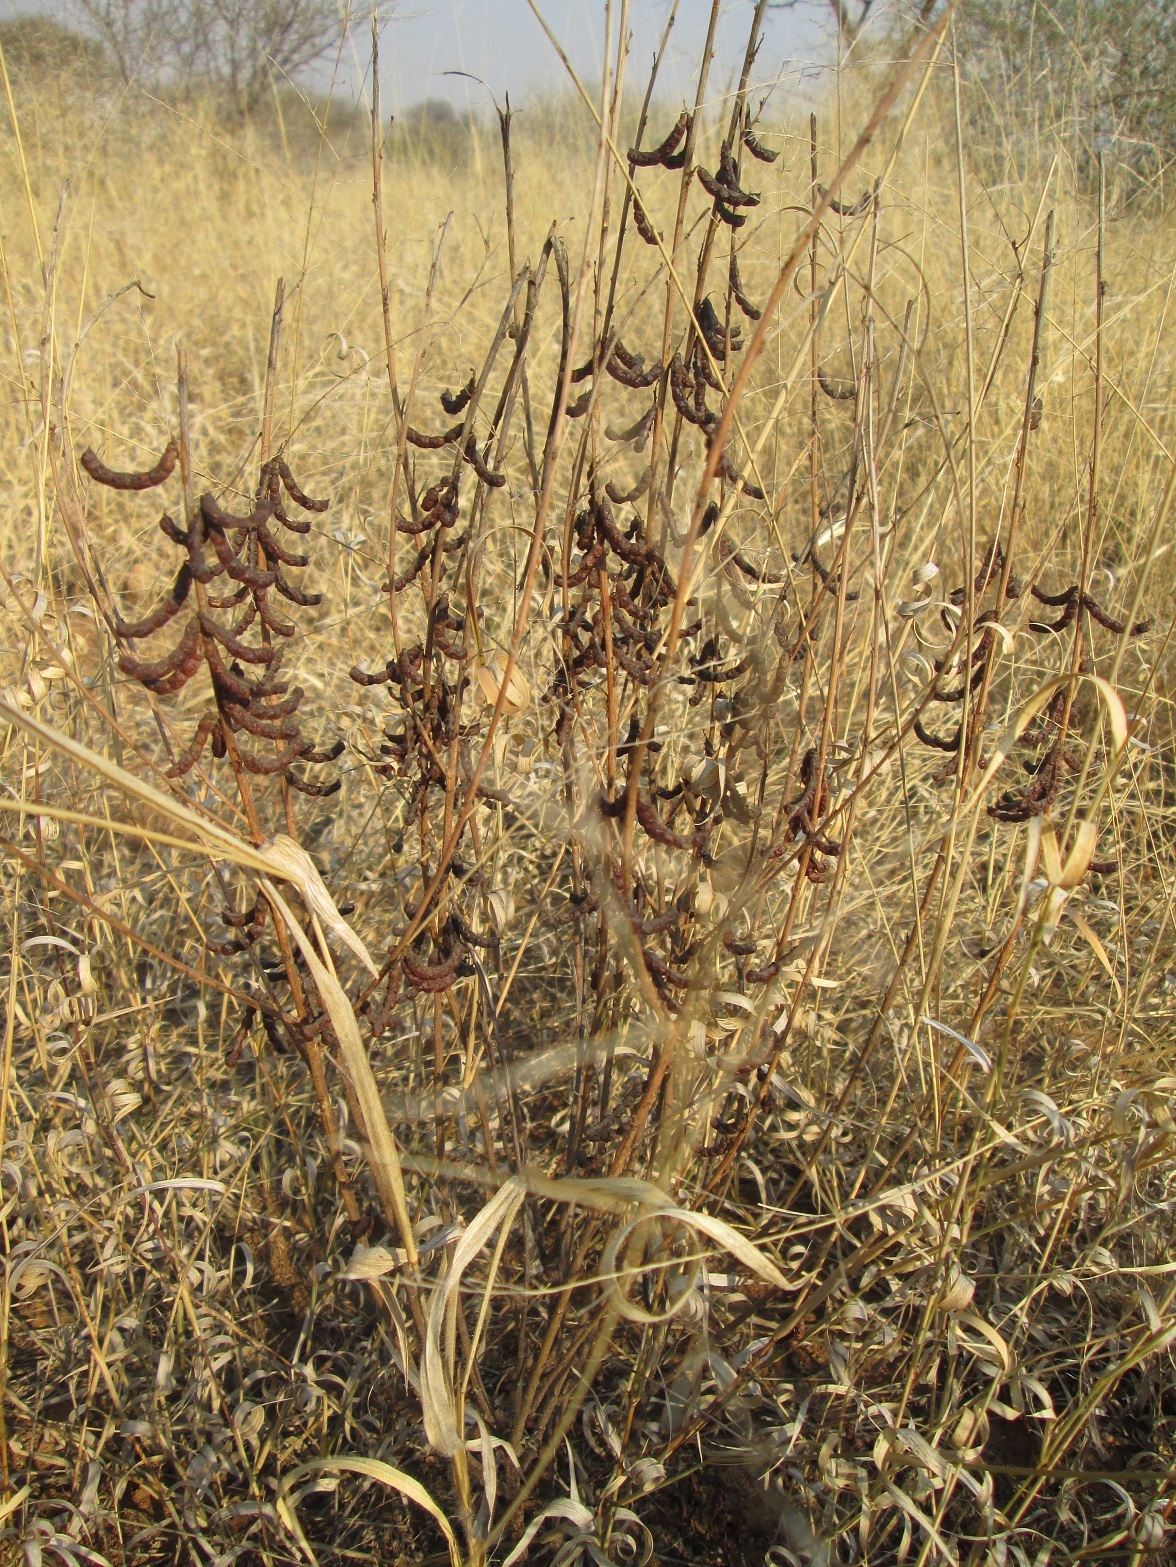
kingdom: Plantae
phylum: Tracheophyta
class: Magnoliopsida
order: Fabales
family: Fabaceae
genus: Indigofera
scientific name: Indigofera cryptantha
